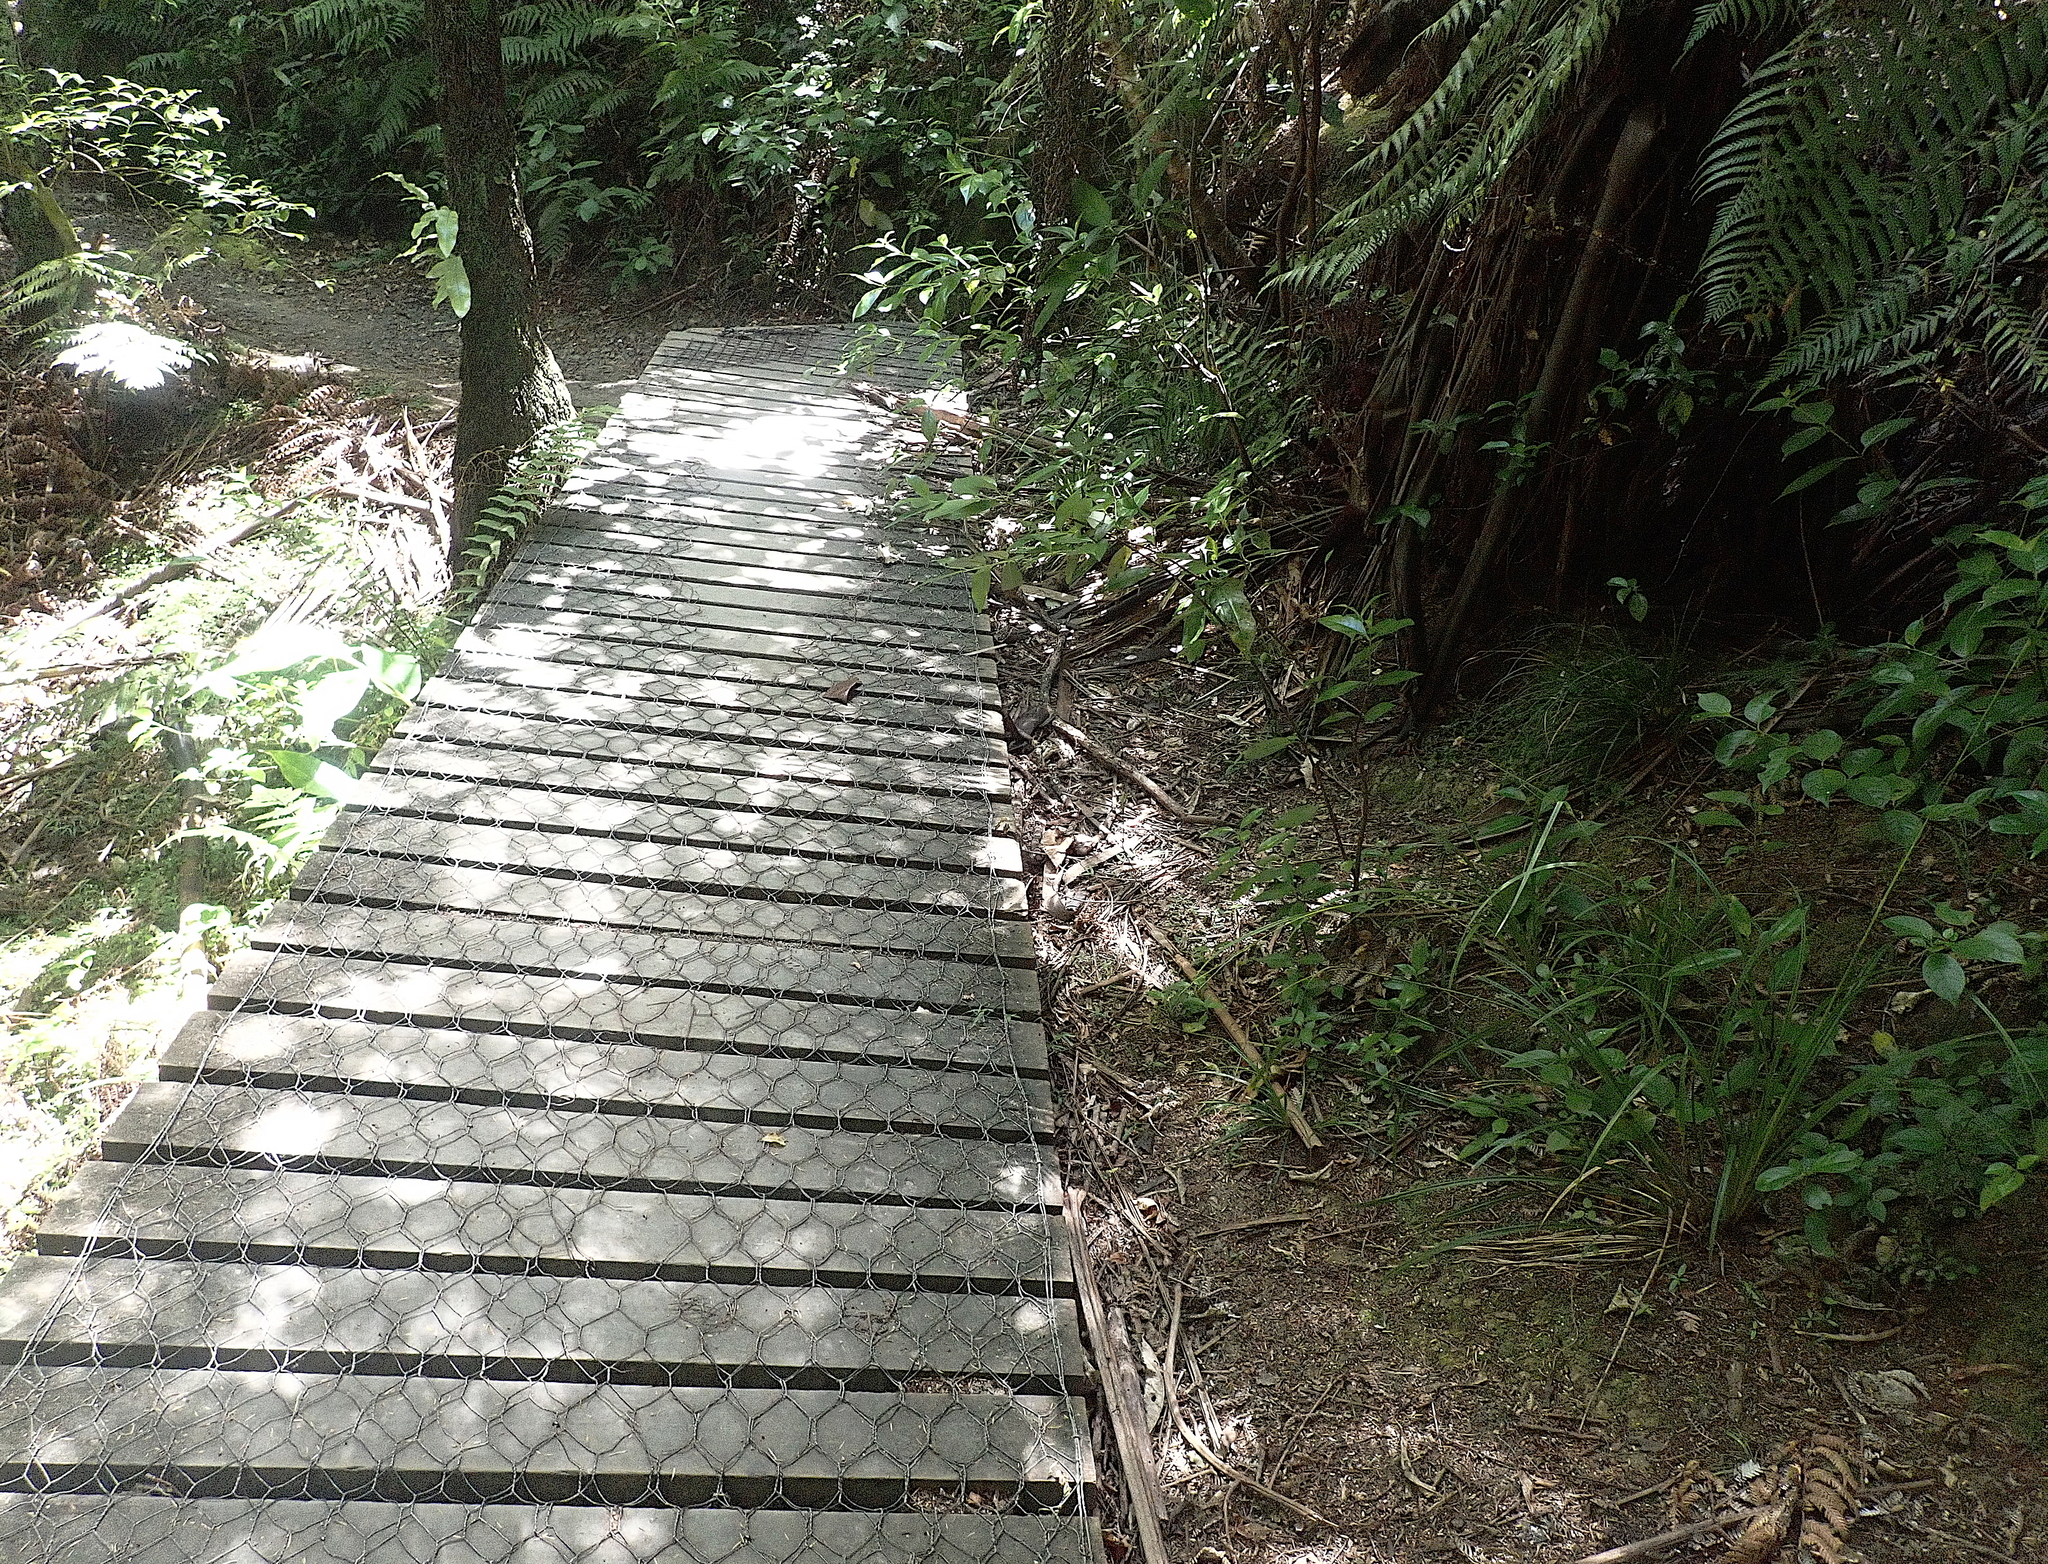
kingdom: Plantae
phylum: Tracheophyta
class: Polypodiopsida
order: Polypodiales
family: Polypodiaceae
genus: Lecanopteris
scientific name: Lecanopteris pustulata
